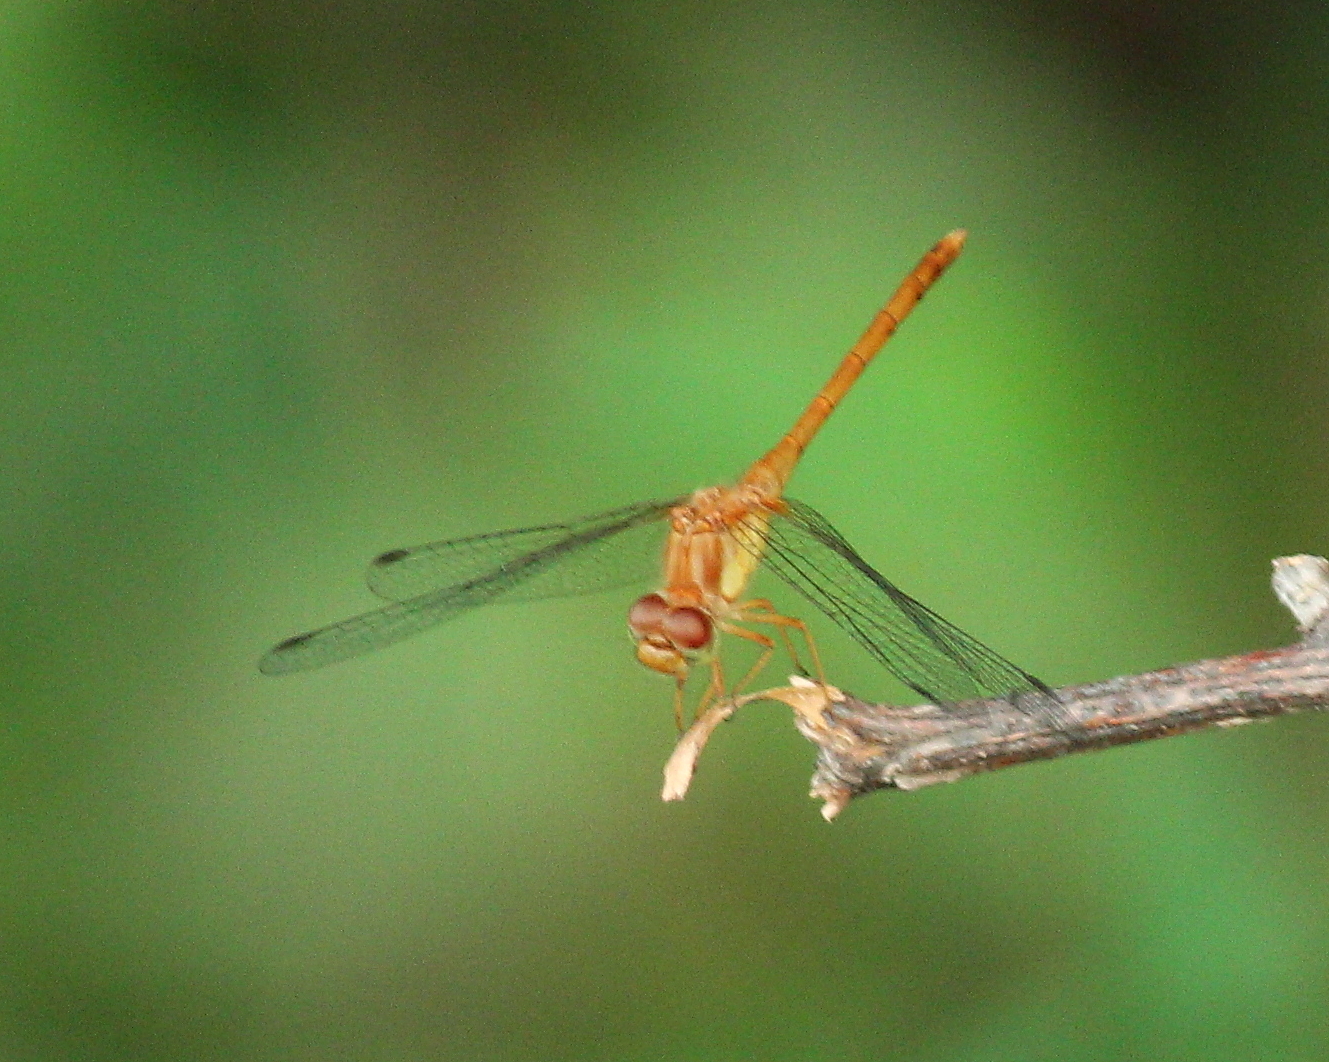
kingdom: Animalia
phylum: Arthropoda
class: Insecta
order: Odonata
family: Libellulidae
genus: Sympetrum
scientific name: Sympetrum vicinum
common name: Autumn meadowhawk
